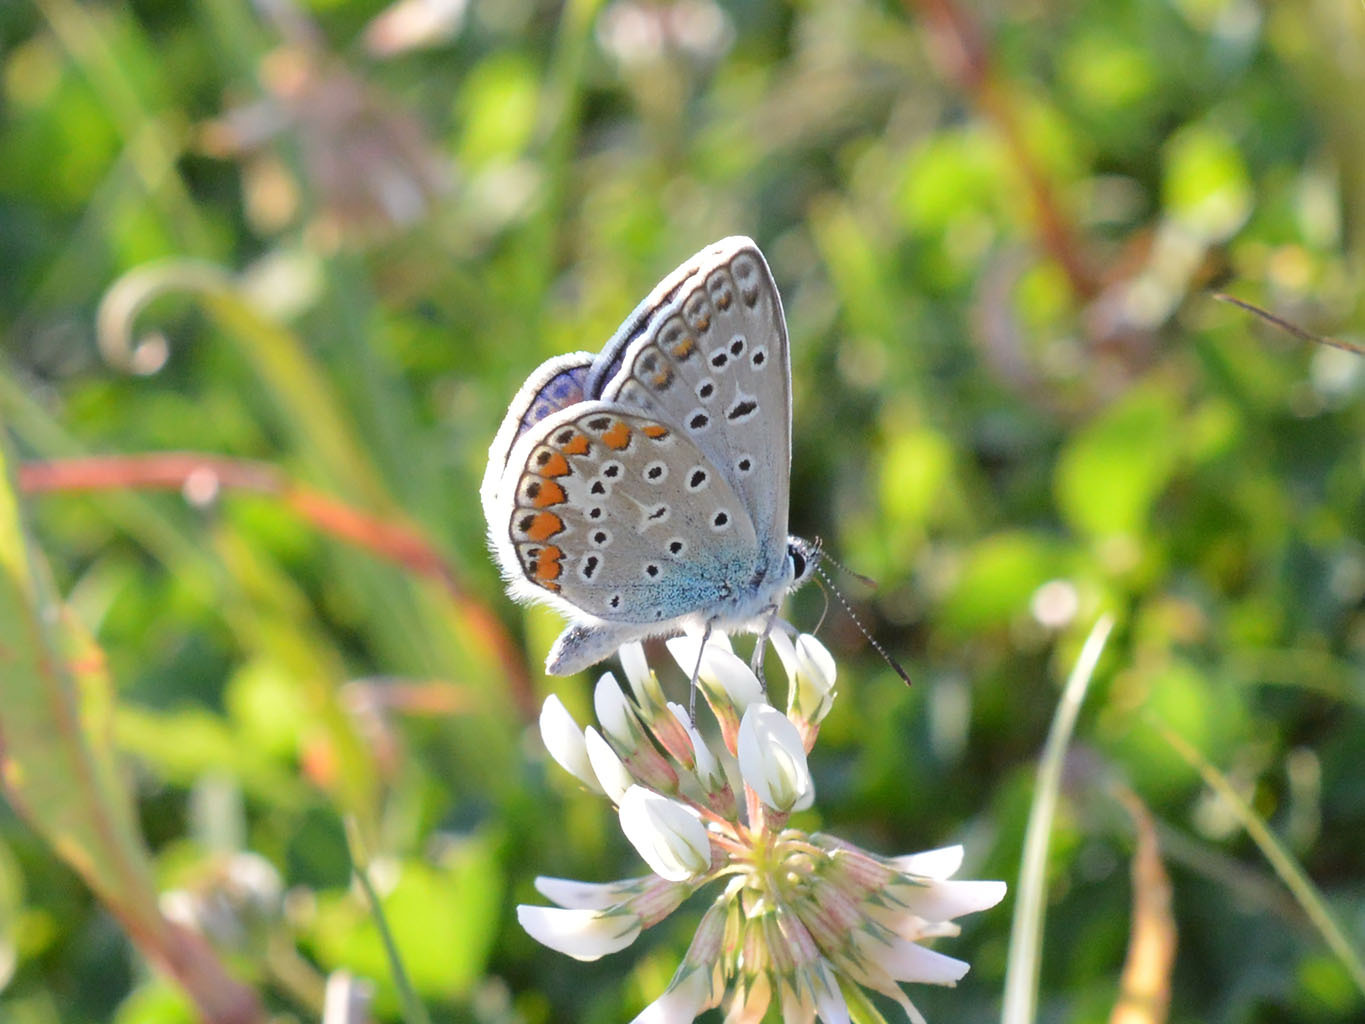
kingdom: Animalia
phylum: Arthropoda
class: Insecta
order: Lepidoptera
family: Lycaenidae
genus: Polyommatus
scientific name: Polyommatus icarus
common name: Common blue
